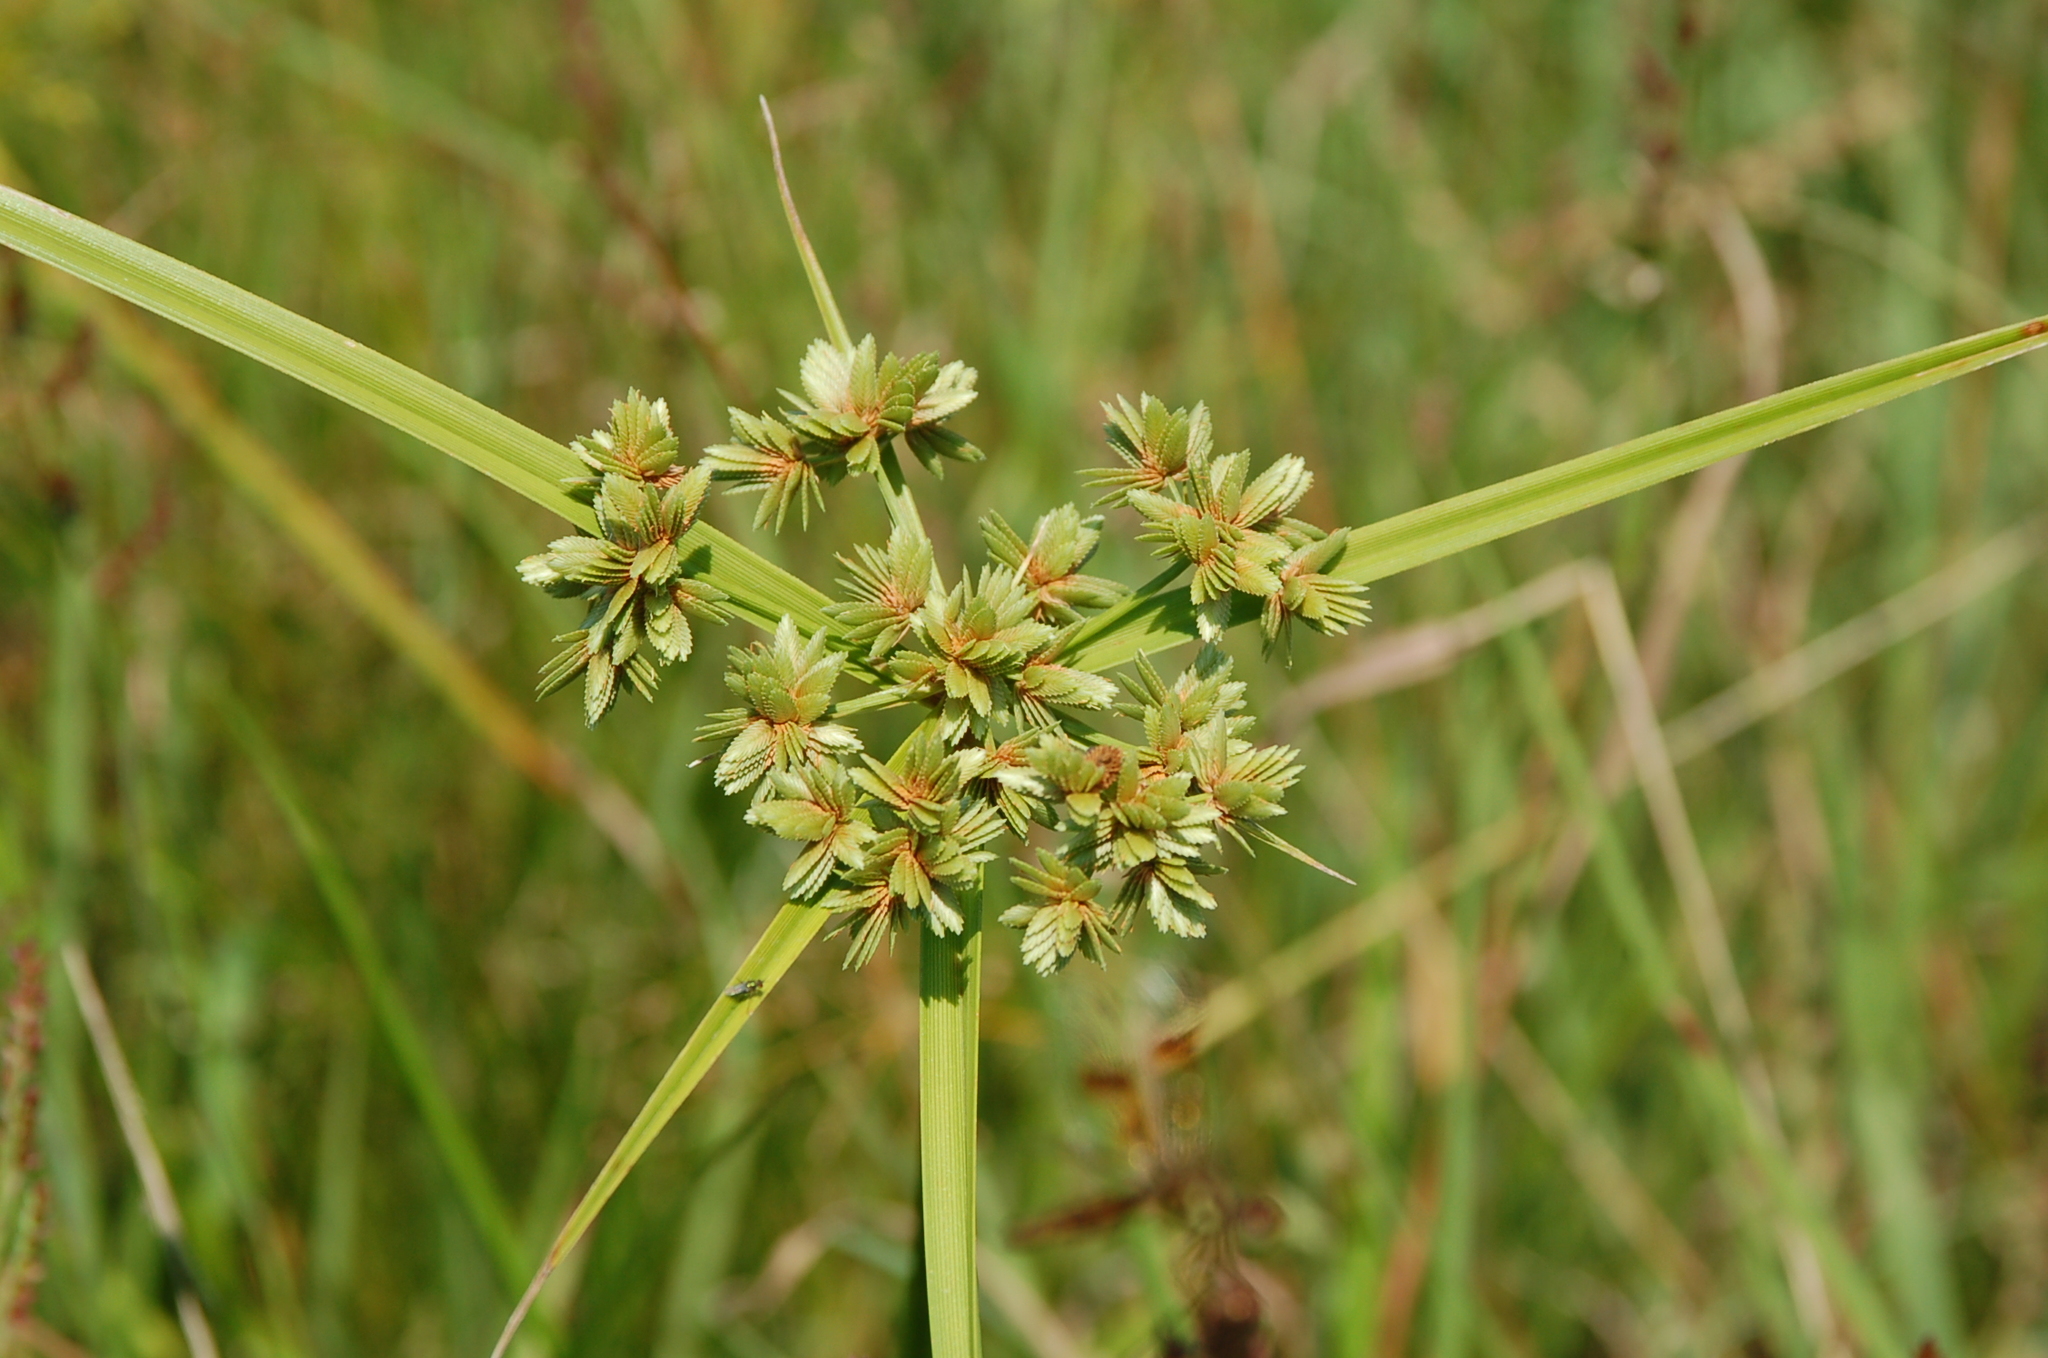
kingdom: Plantae
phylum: Tracheophyta
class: Liliopsida
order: Poales
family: Cyperaceae
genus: Cyperus
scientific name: Cyperus virens
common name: Green flatsedge
